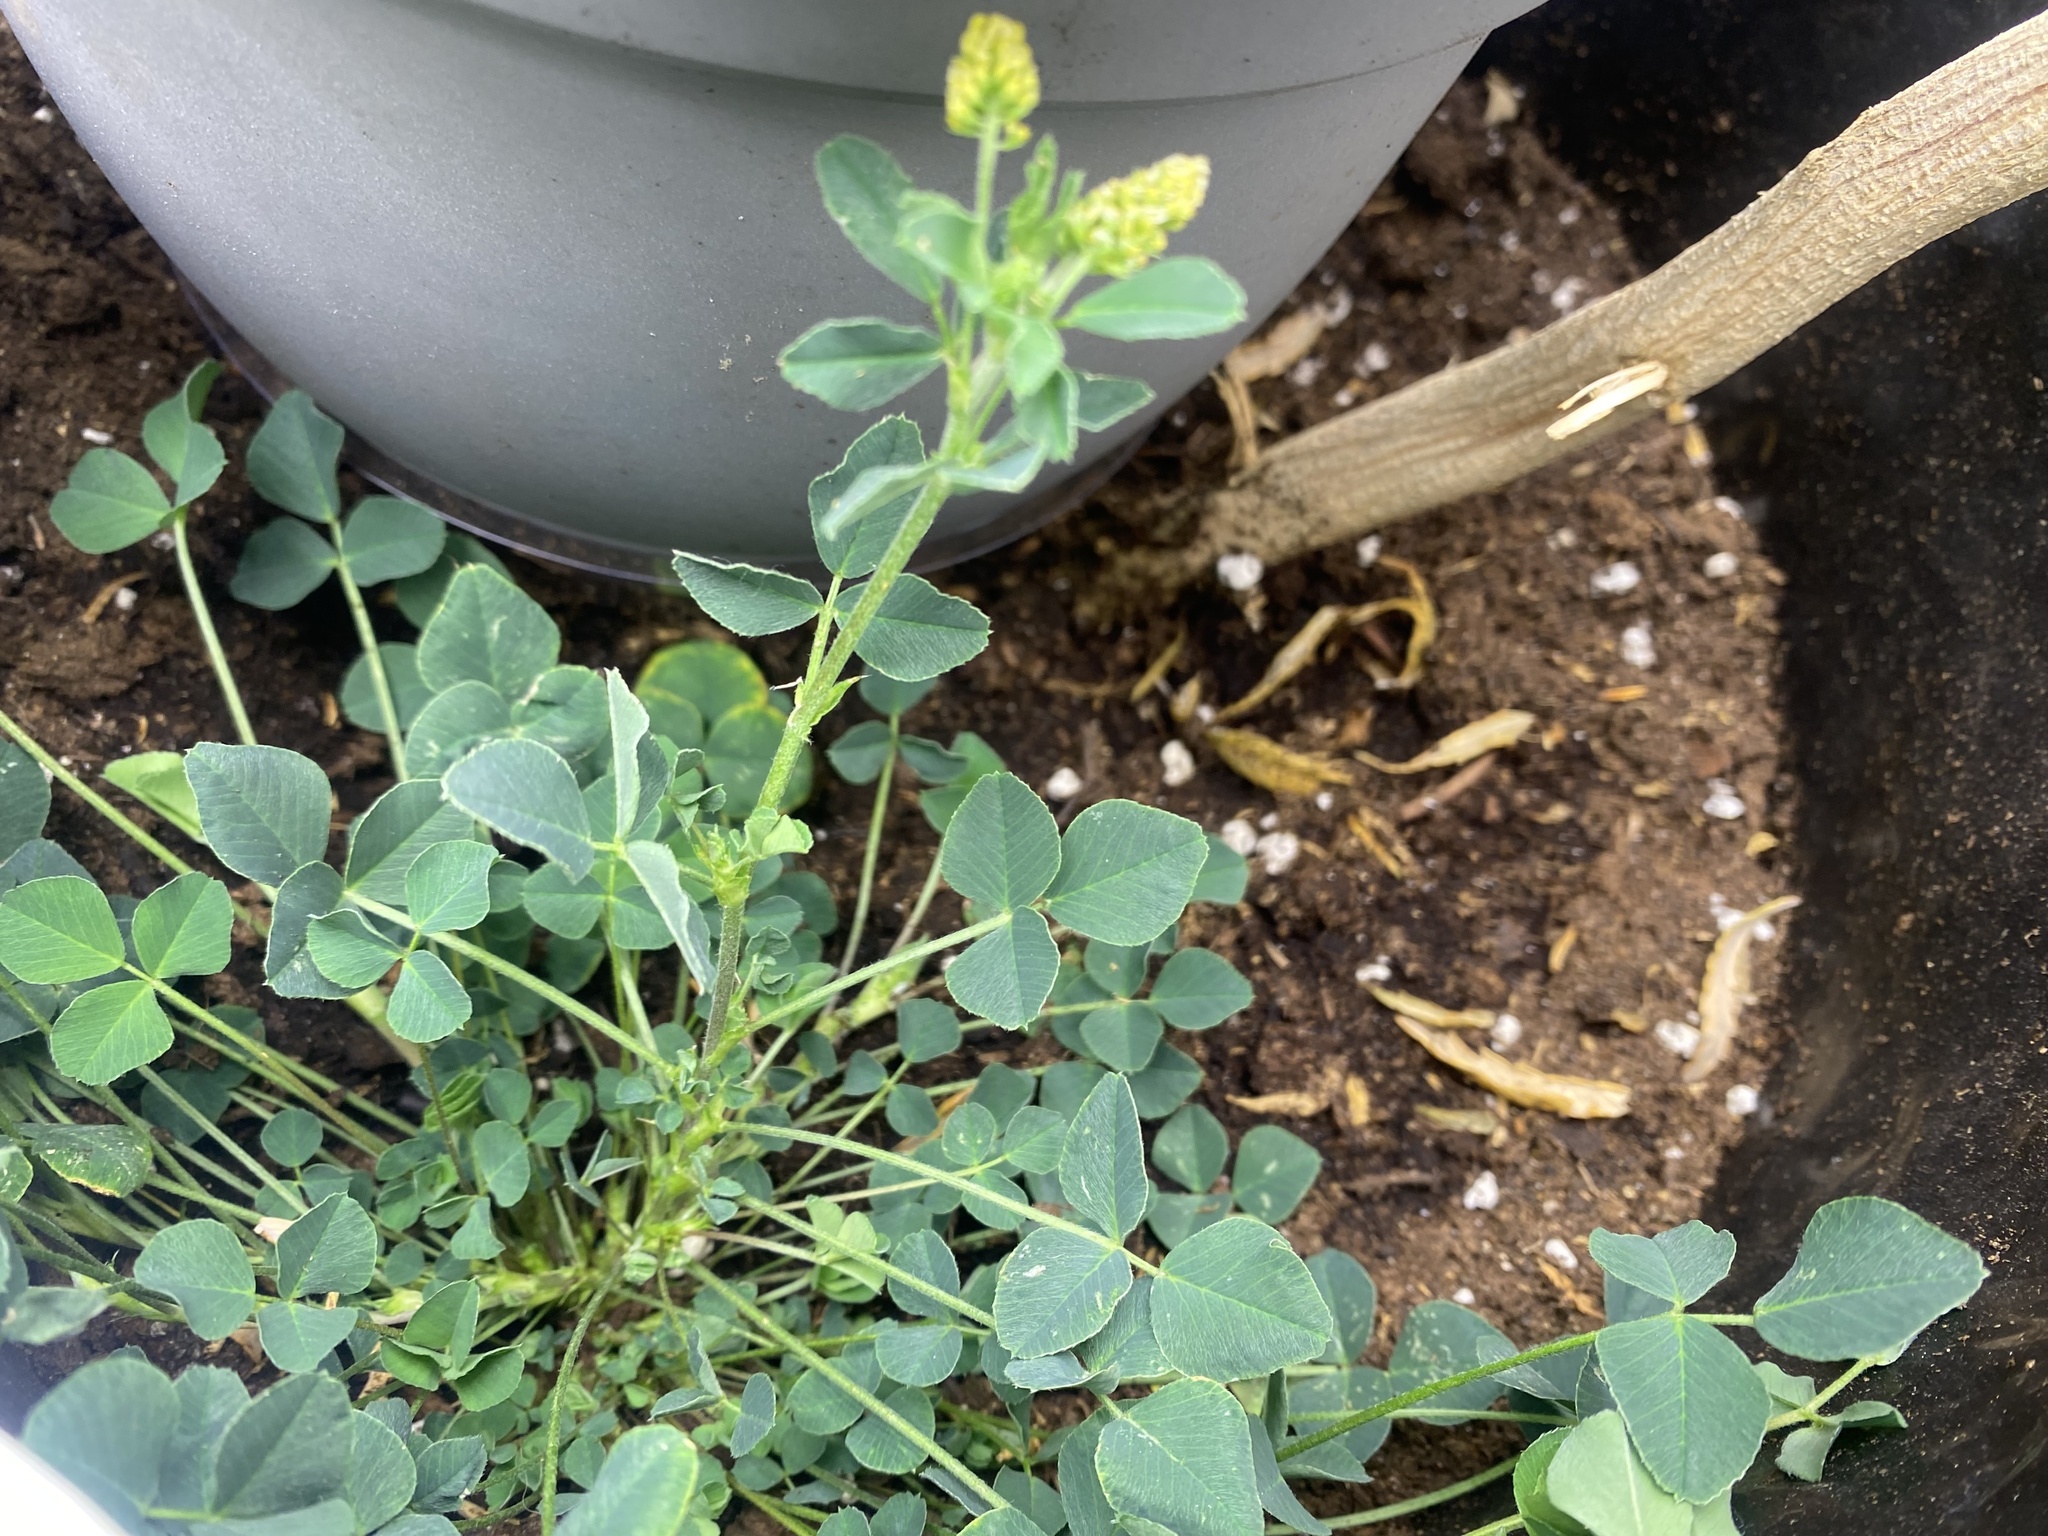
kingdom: Plantae
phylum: Tracheophyta
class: Magnoliopsida
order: Fabales
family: Fabaceae
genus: Medicago
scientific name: Medicago lupulina
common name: Black medick
